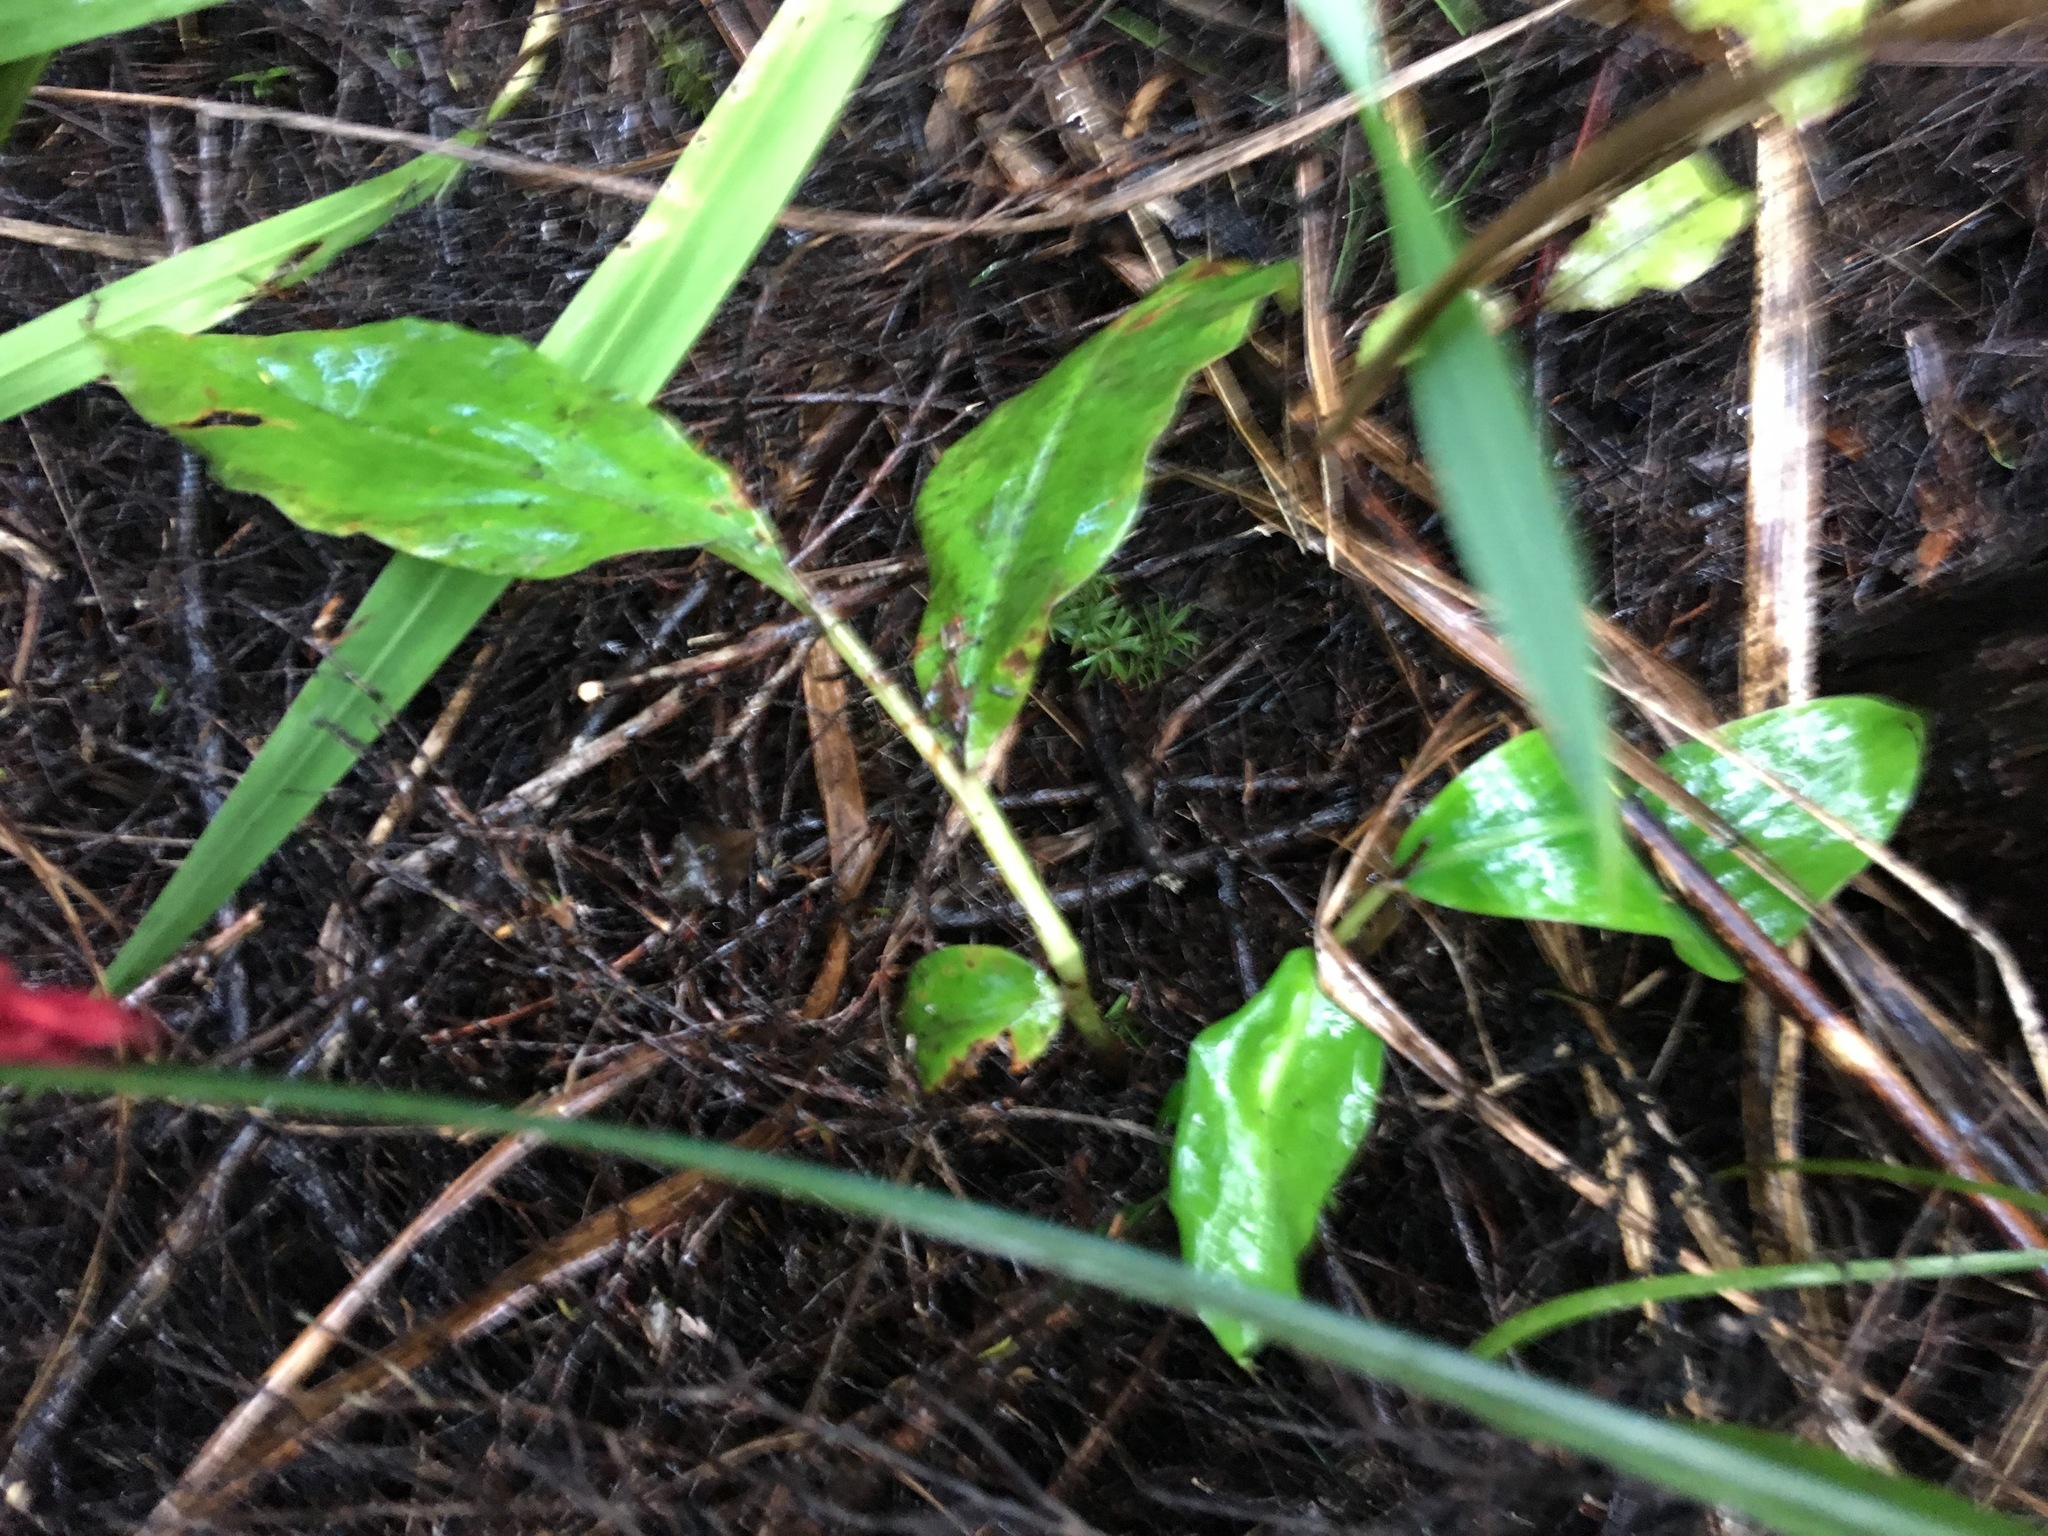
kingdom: Plantae
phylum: Tracheophyta
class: Liliopsida
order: Zingiberales
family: Zingiberaceae
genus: Hedychium
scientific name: Hedychium gardnerianum
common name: Himalayan ginger
